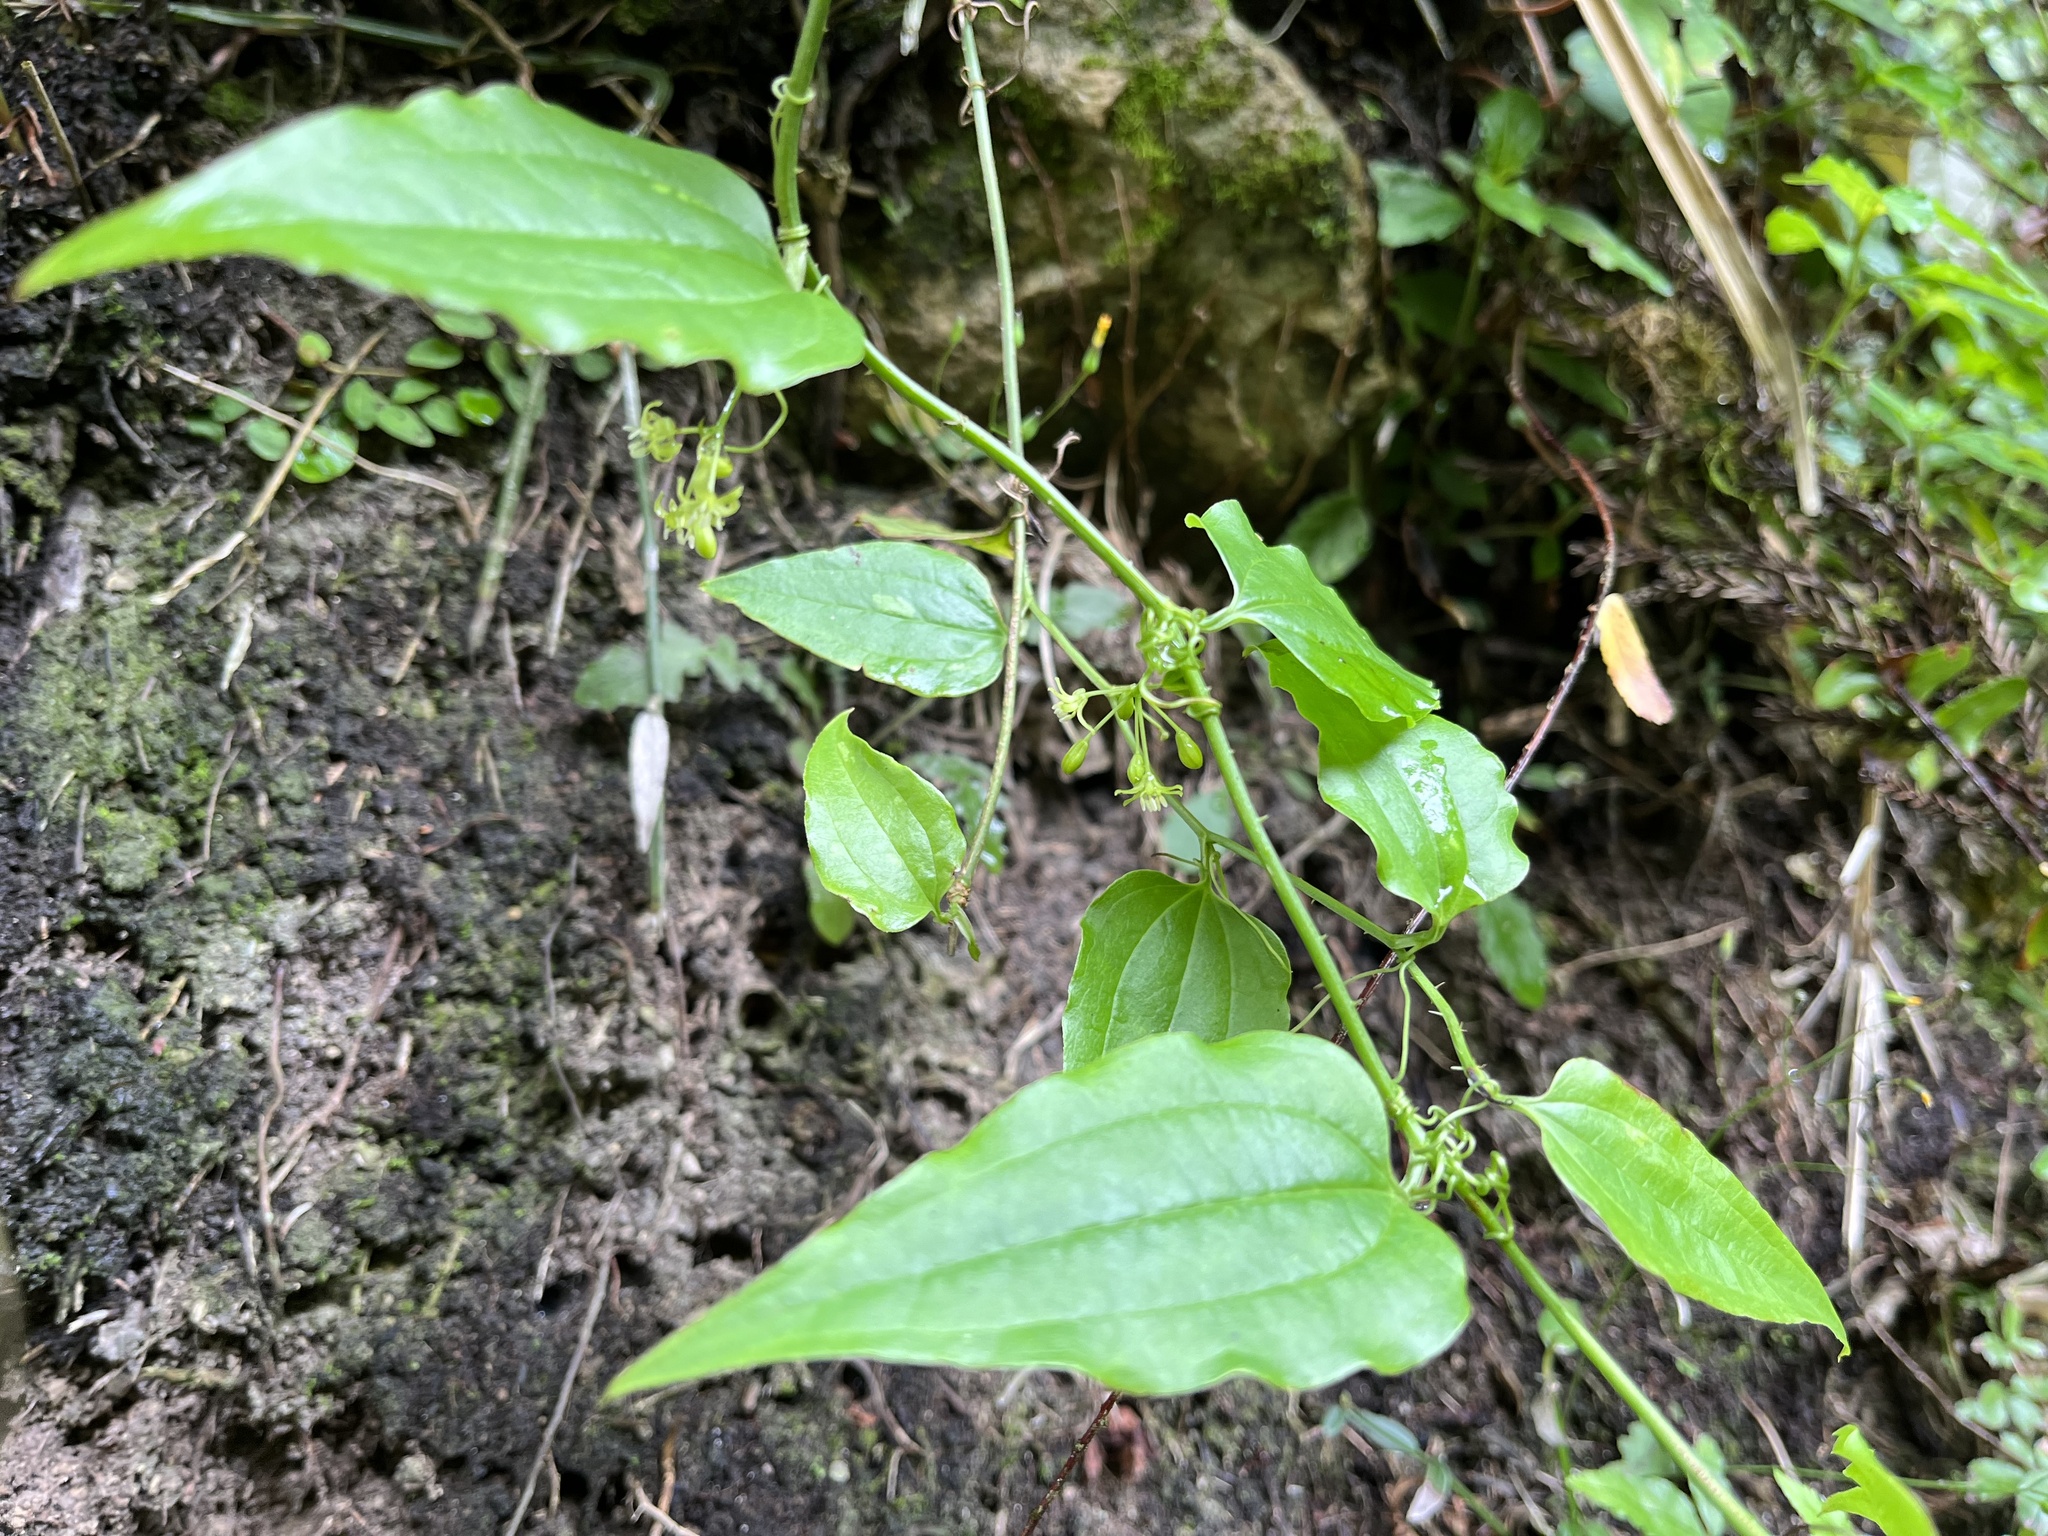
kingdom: Plantae
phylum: Tracheophyta
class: Liliopsida
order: Liliales
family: Smilacaceae
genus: Smilax
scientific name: Smilax sieboldii
